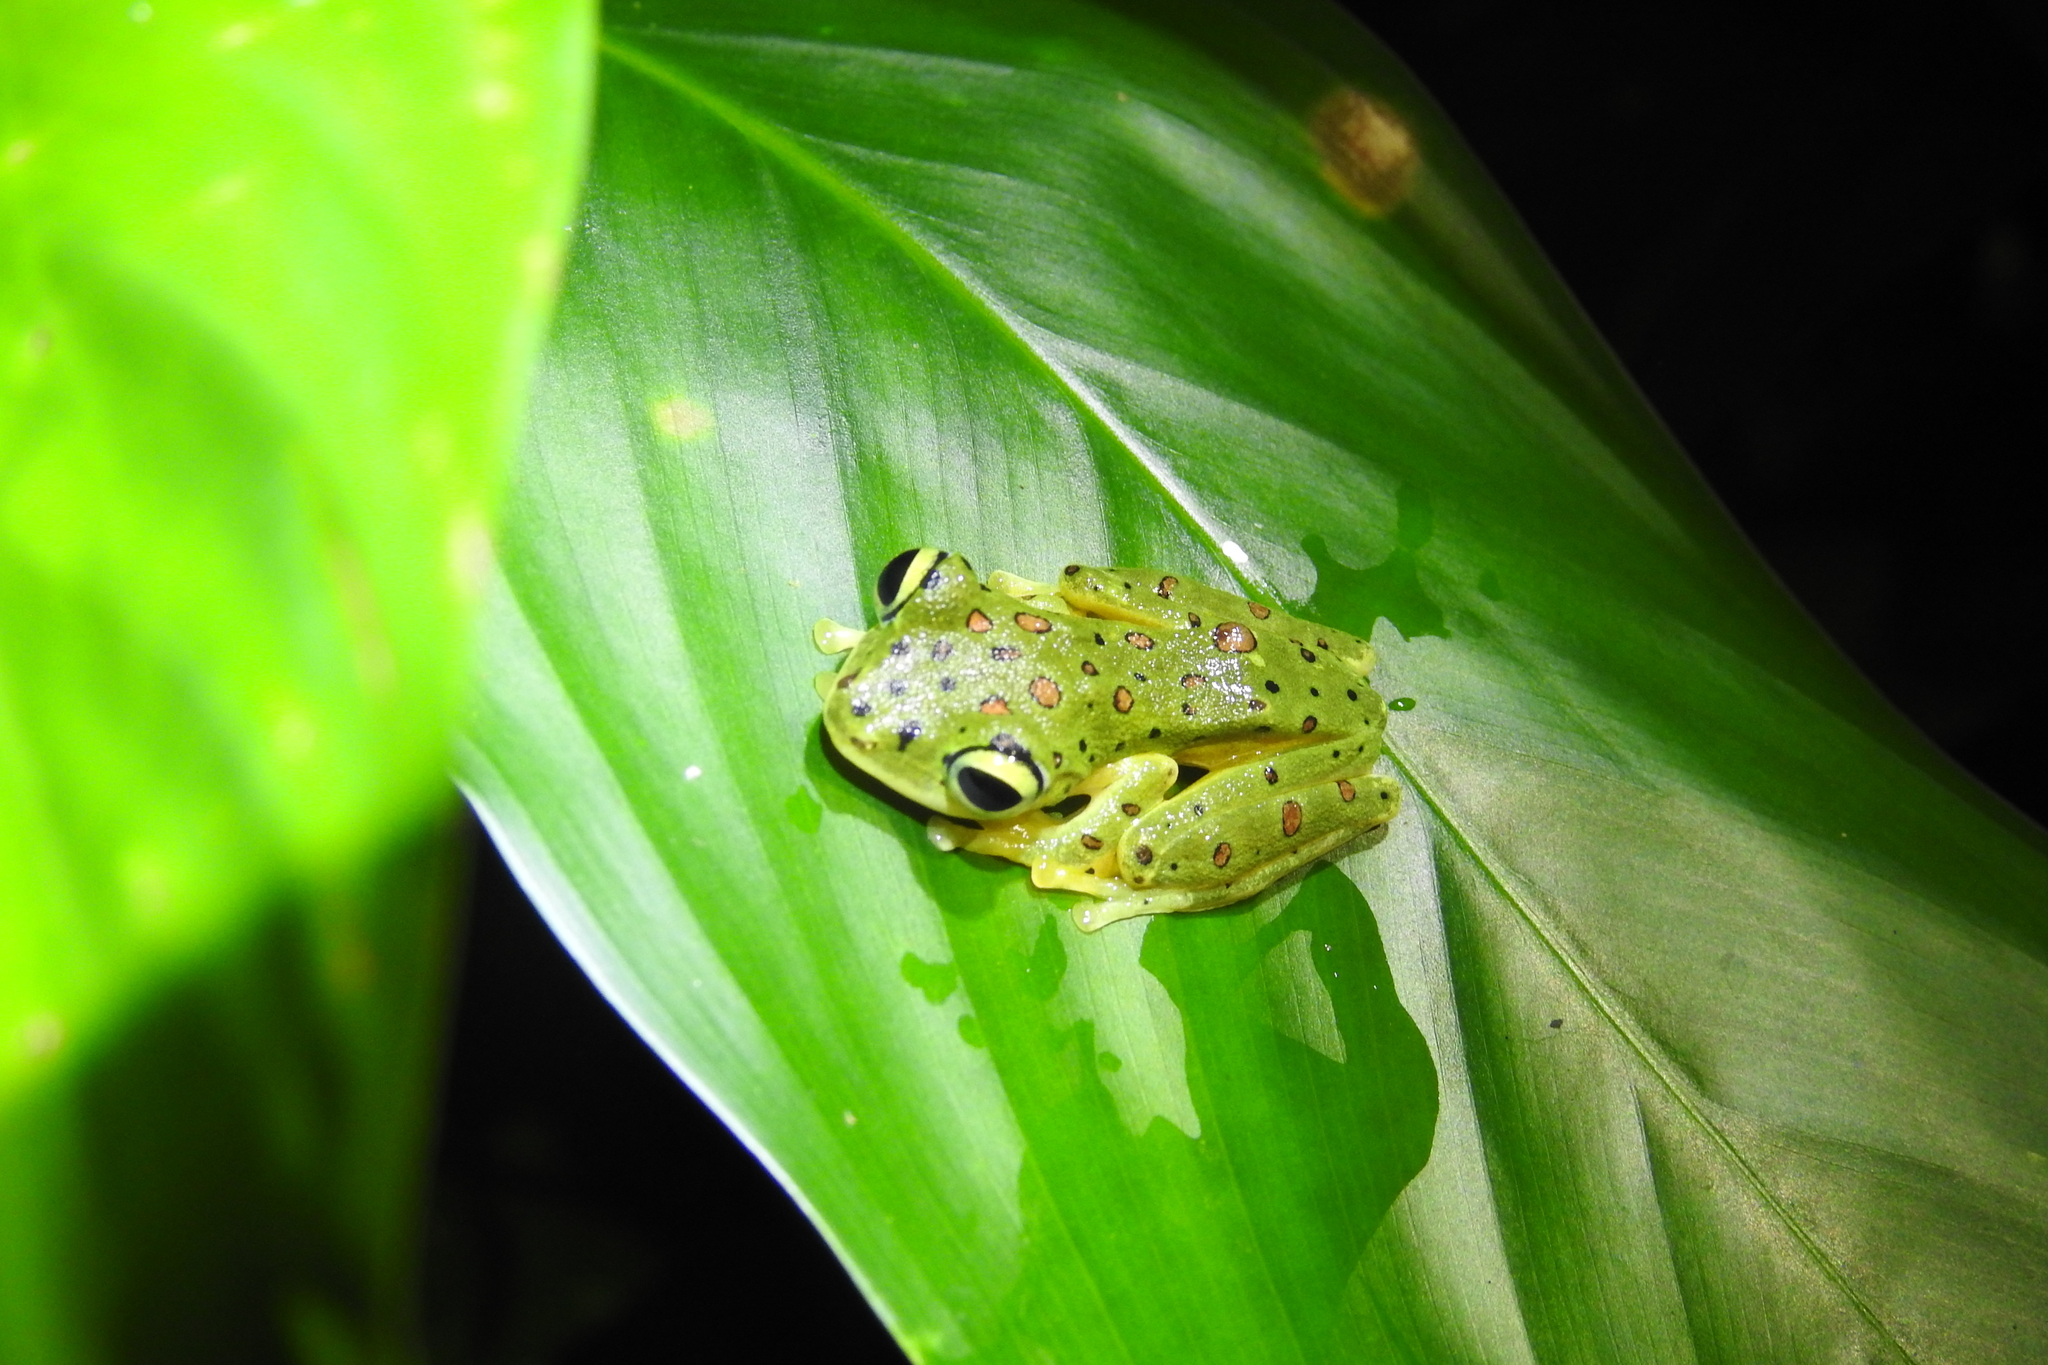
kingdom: Animalia
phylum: Chordata
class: Amphibia
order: Anura
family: Rhacophoridae
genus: Rhacophorus
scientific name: Rhacophorus edentulus
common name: Celebes flying frog
